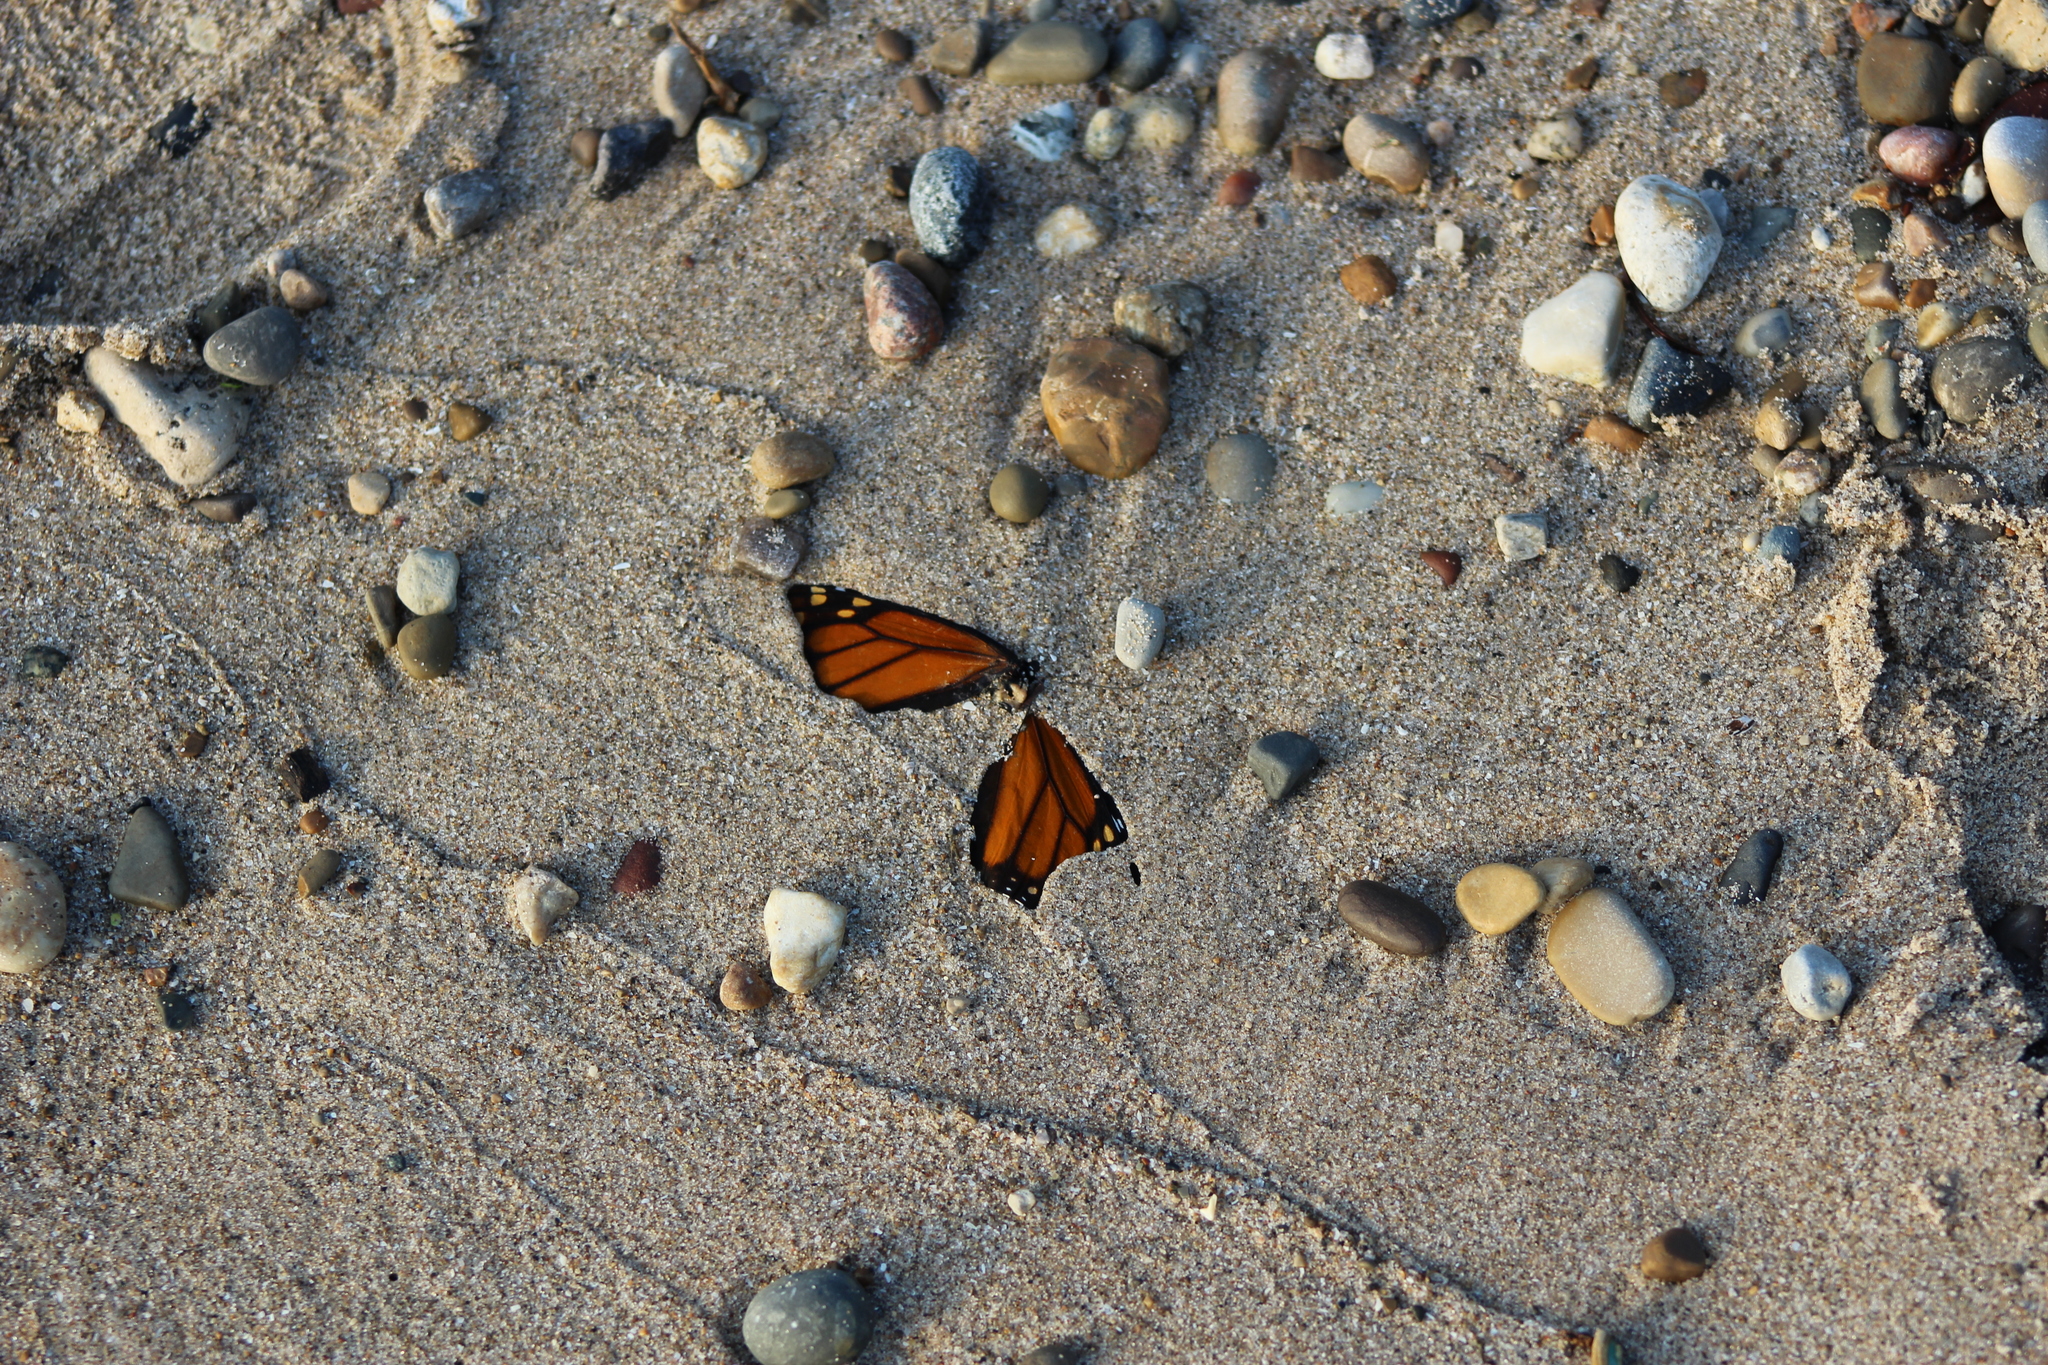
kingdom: Animalia
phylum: Arthropoda
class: Insecta
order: Lepidoptera
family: Nymphalidae
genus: Danaus
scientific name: Danaus plexippus
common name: Monarch
